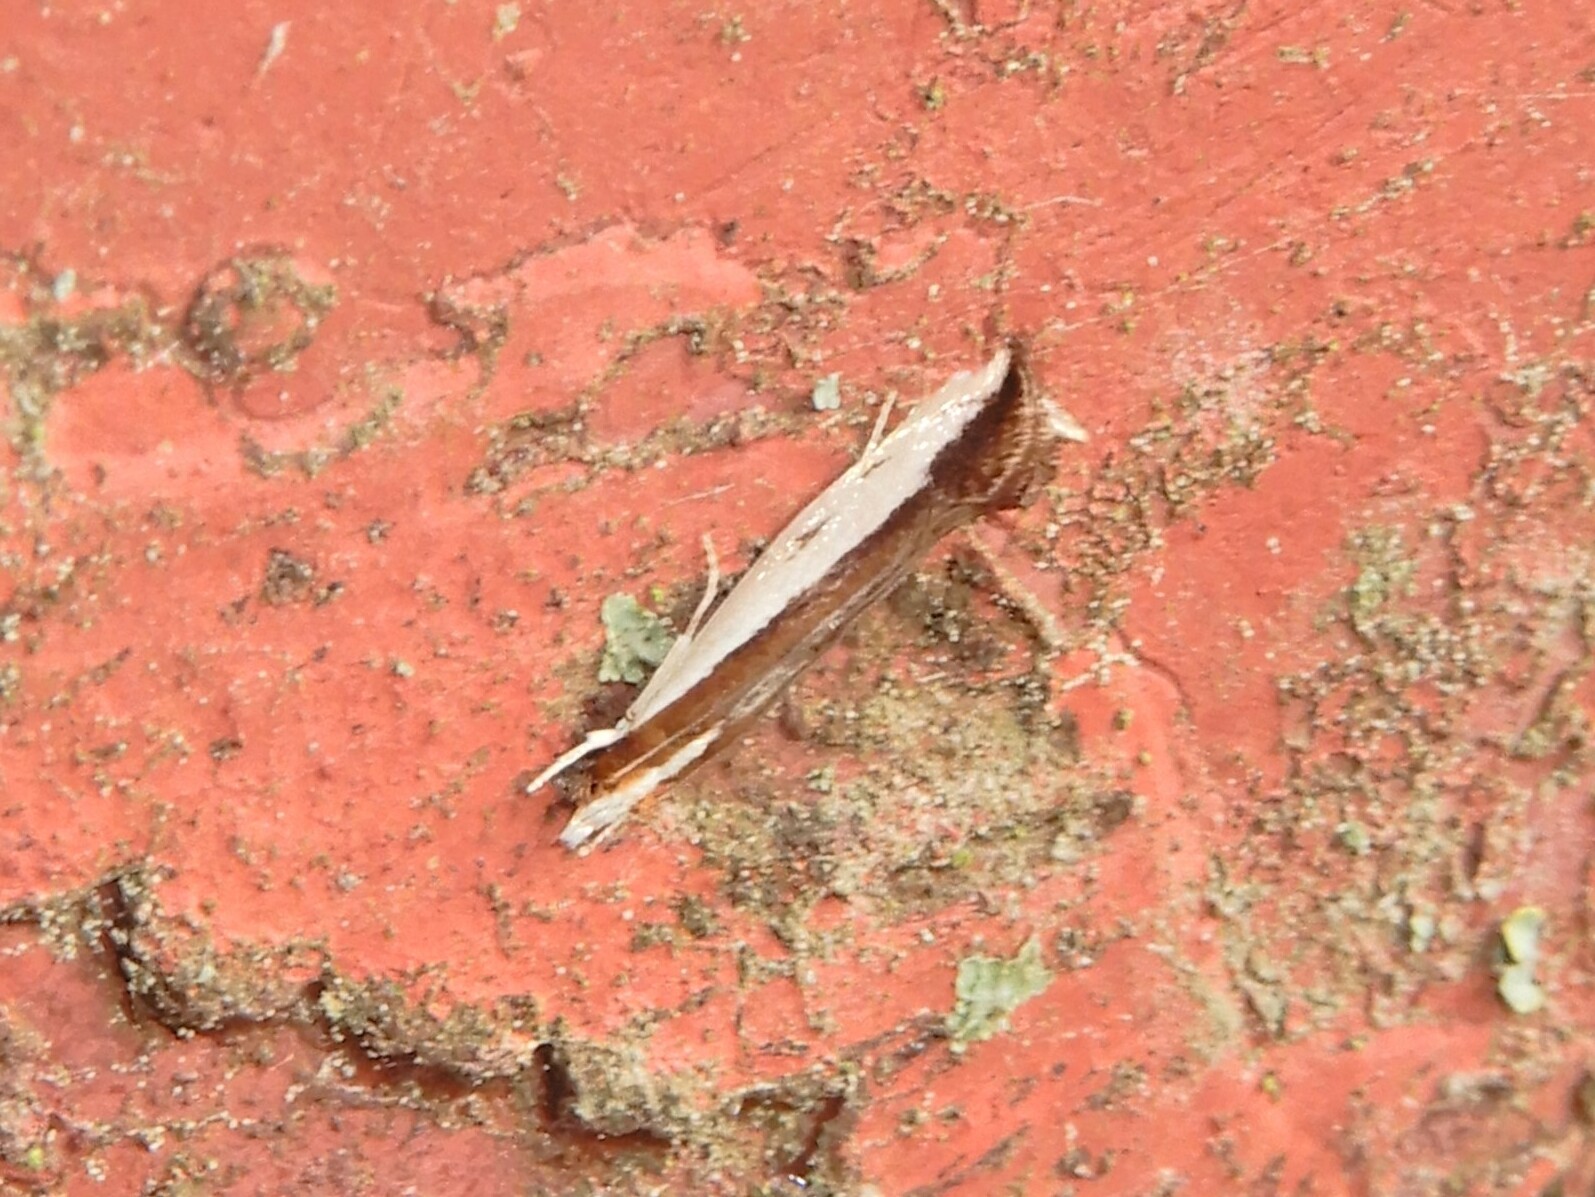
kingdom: Animalia
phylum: Arthropoda
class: Insecta
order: Lepidoptera
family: Tineidae
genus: Erechthias
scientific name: Erechthias chionodira
